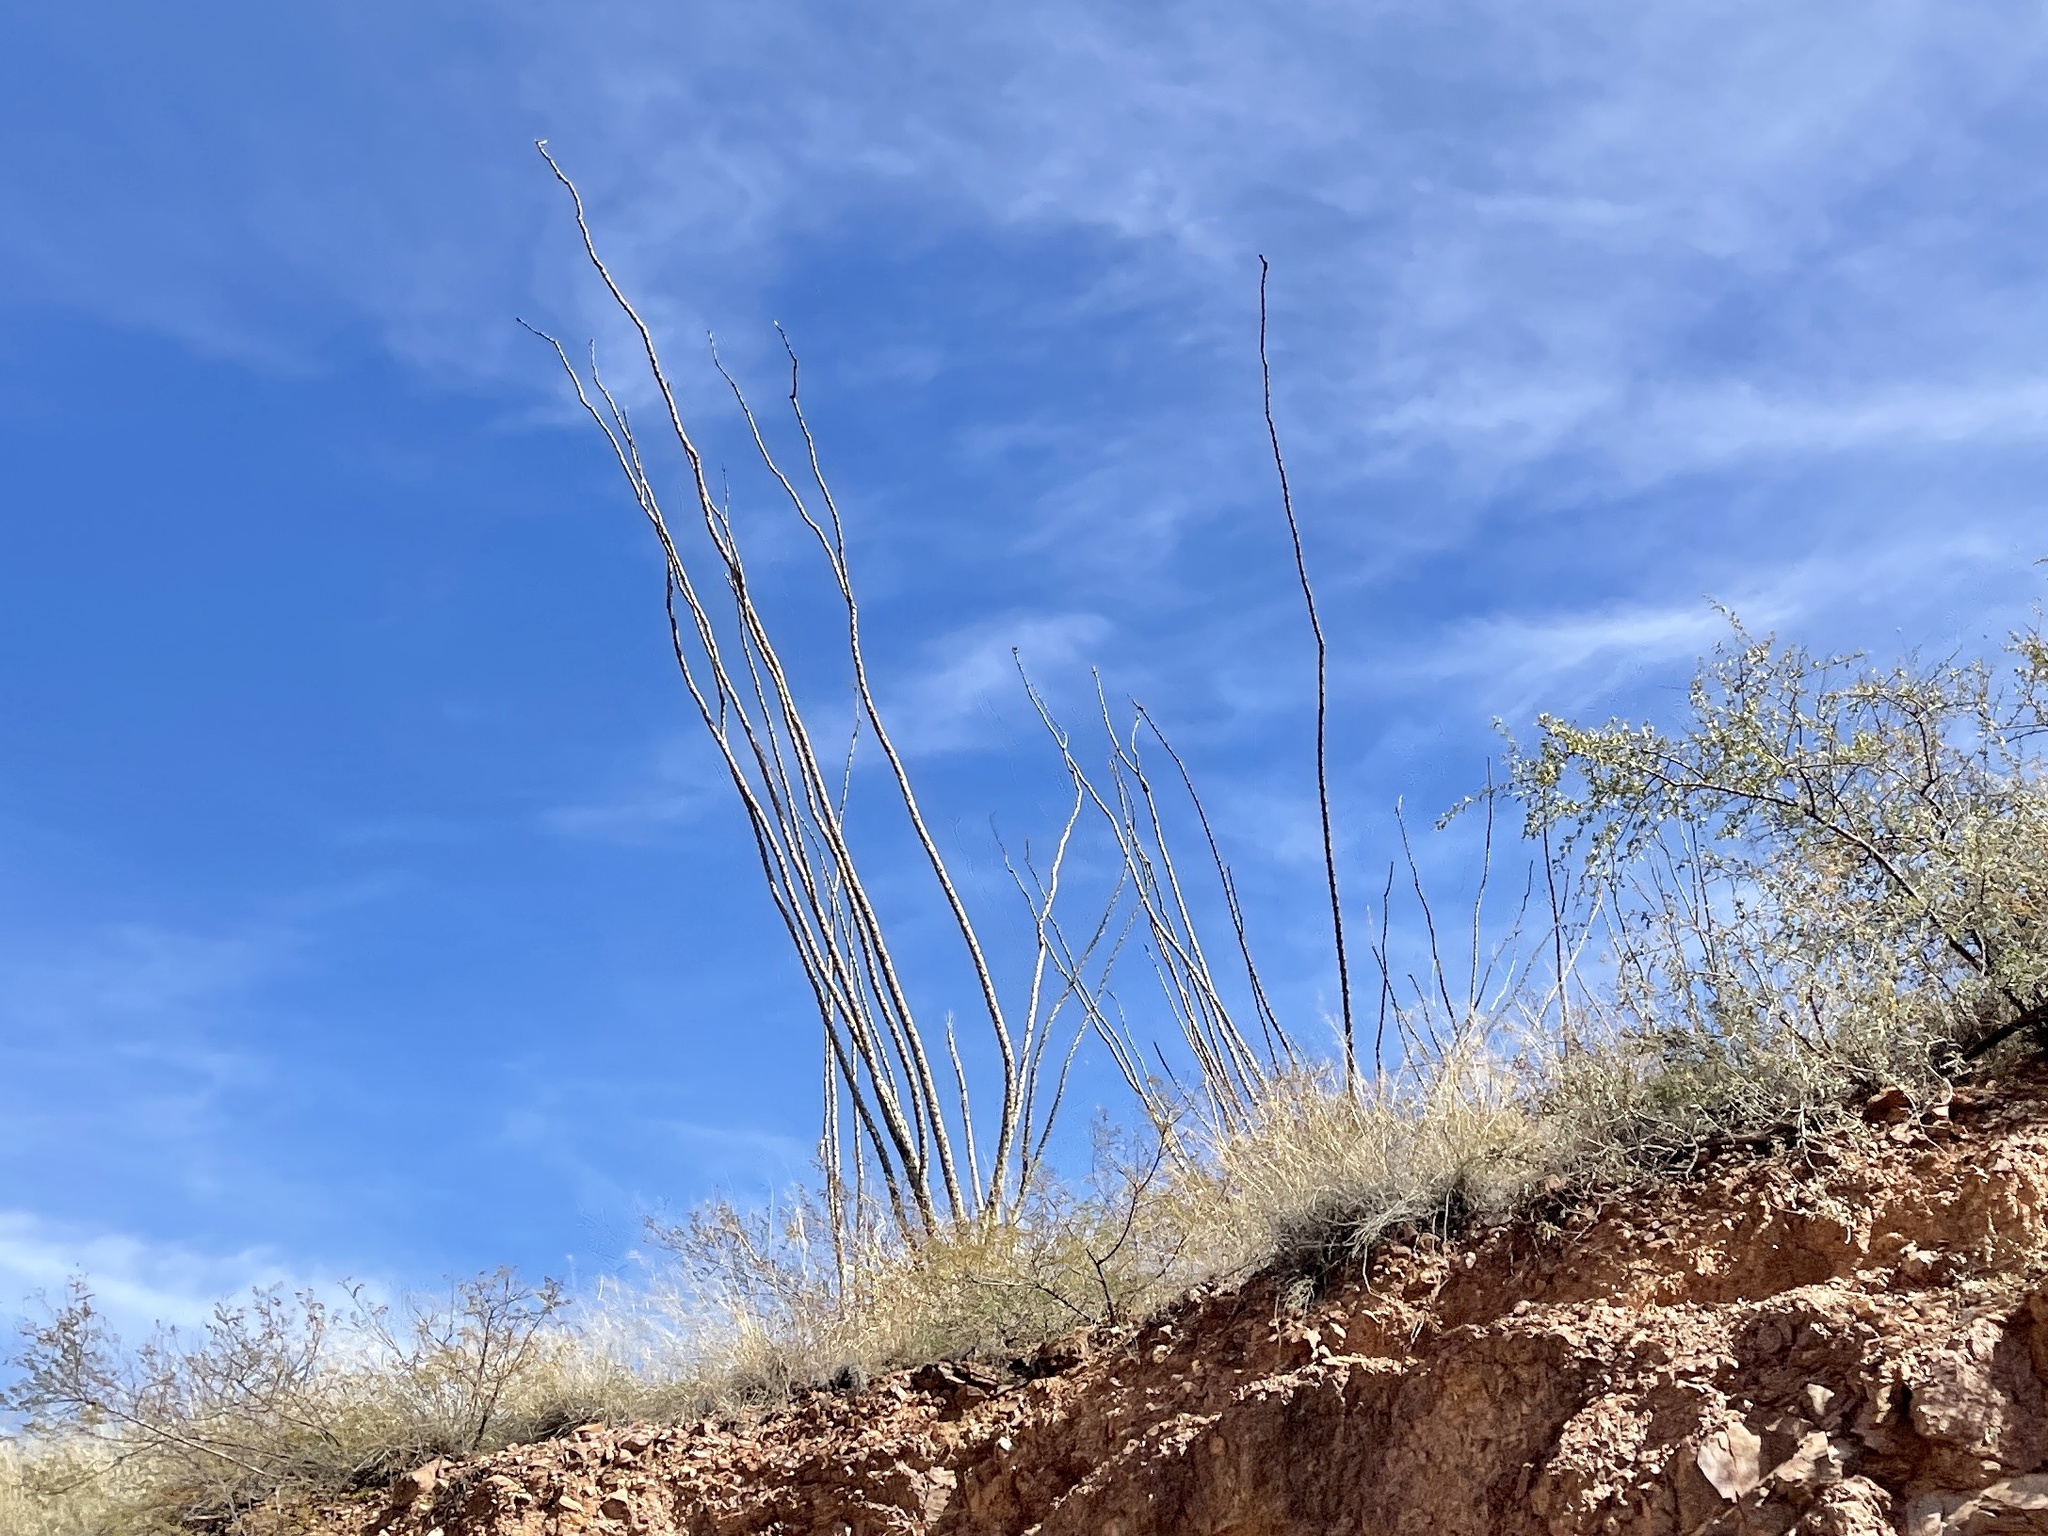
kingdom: Plantae
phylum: Tracheophyta
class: Magnoliopsida
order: Ericales
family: Fouquieriaceae
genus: Fouquieria
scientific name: Fouquieria splendens
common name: Vine-cactus
